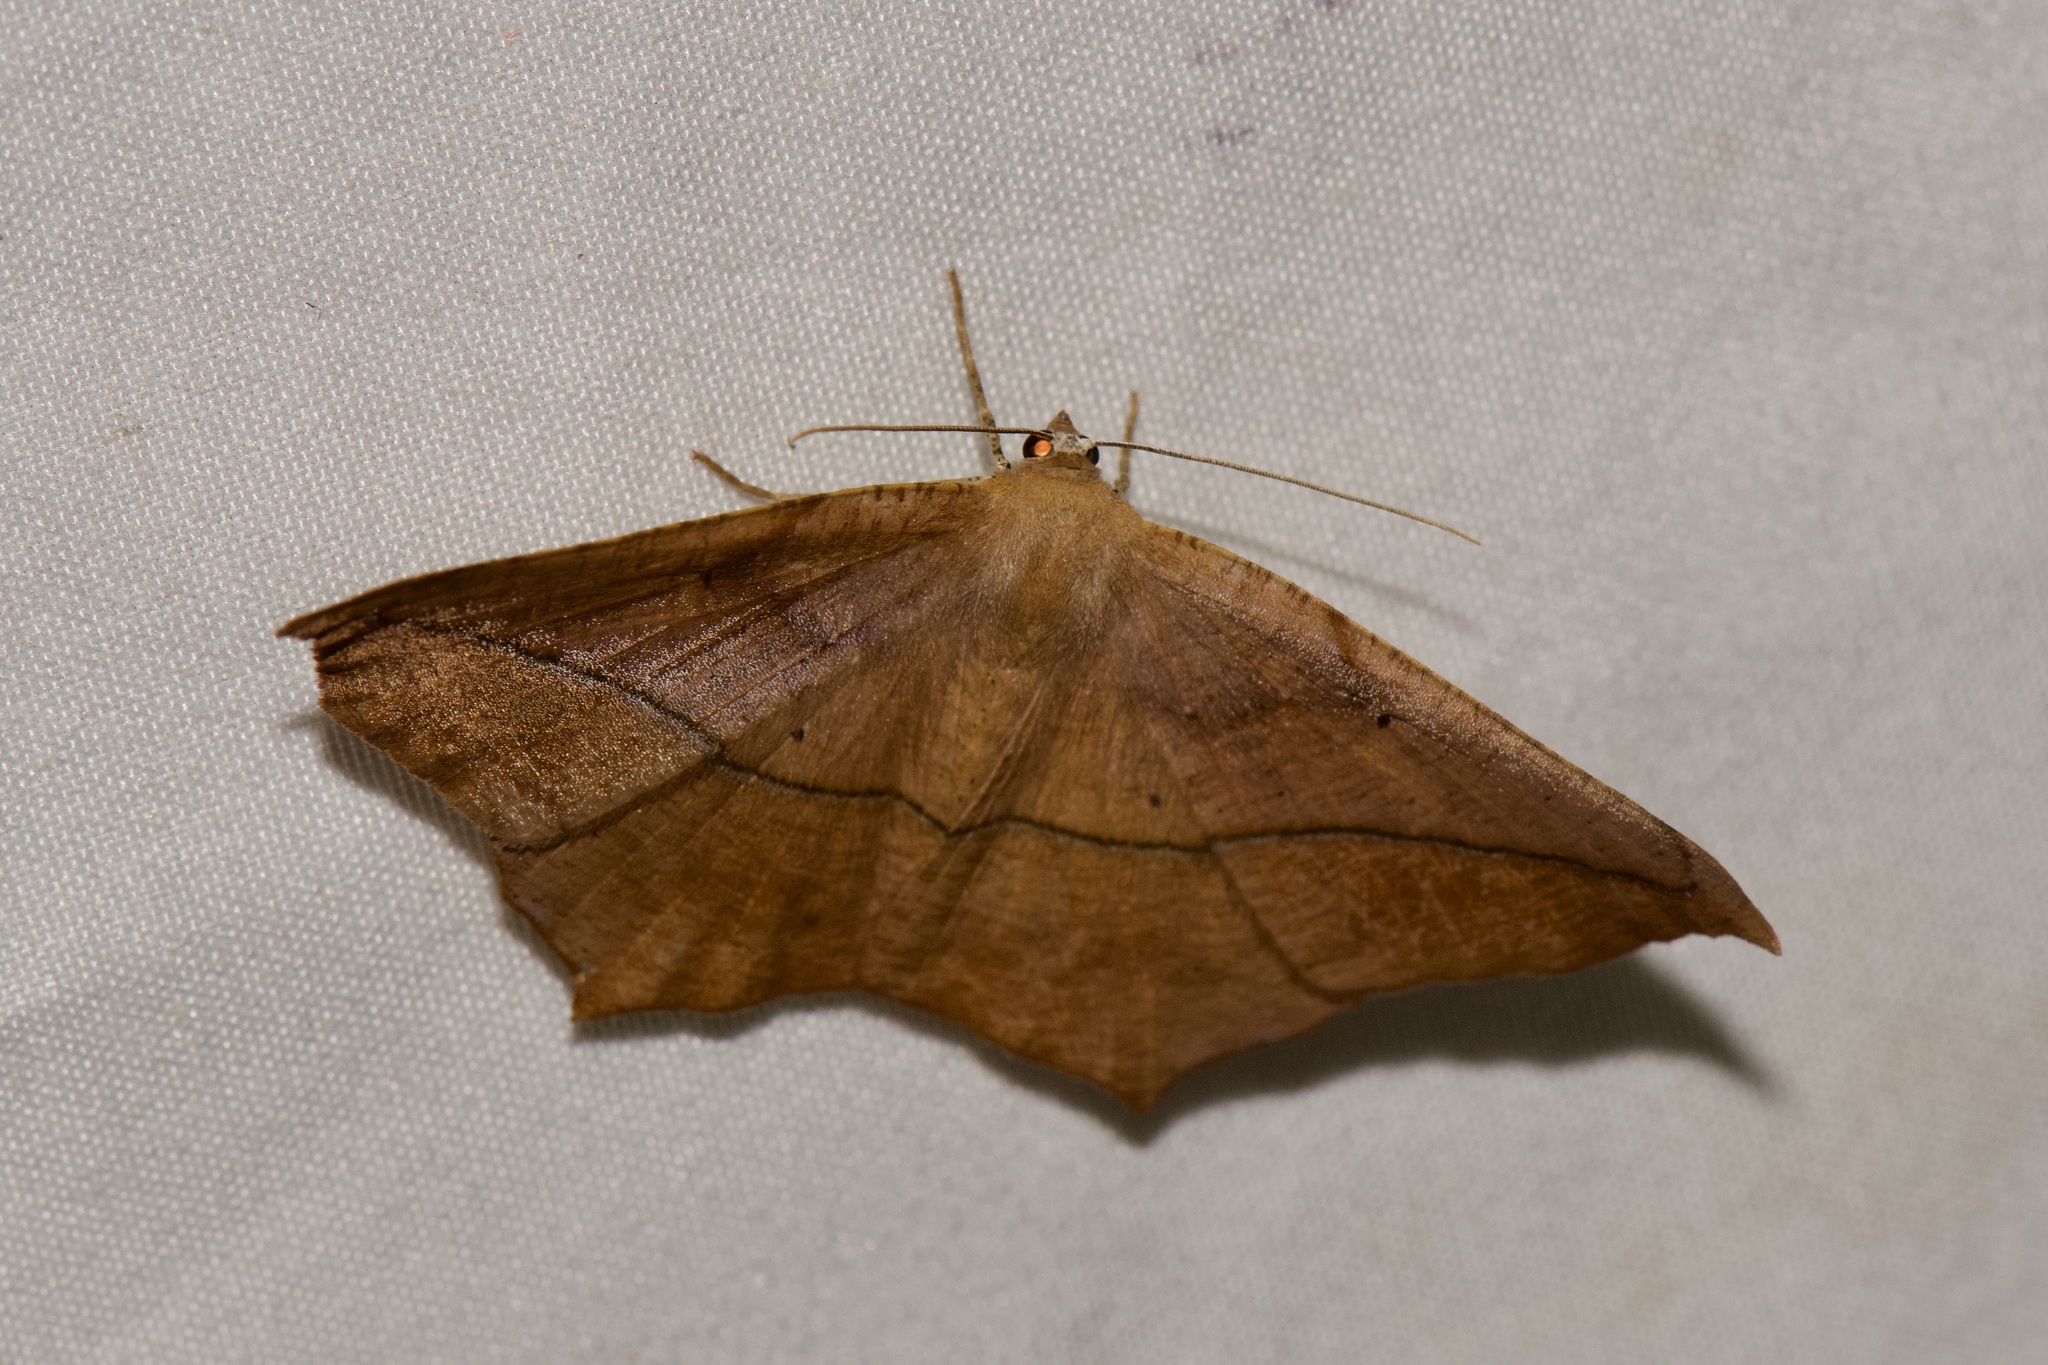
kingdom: Animalia
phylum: Arthropoda
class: Insecta
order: Lepidoptera
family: Geometridae
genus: Prochoerodes
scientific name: Prochoerodes lineola
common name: Large maple spanworm
